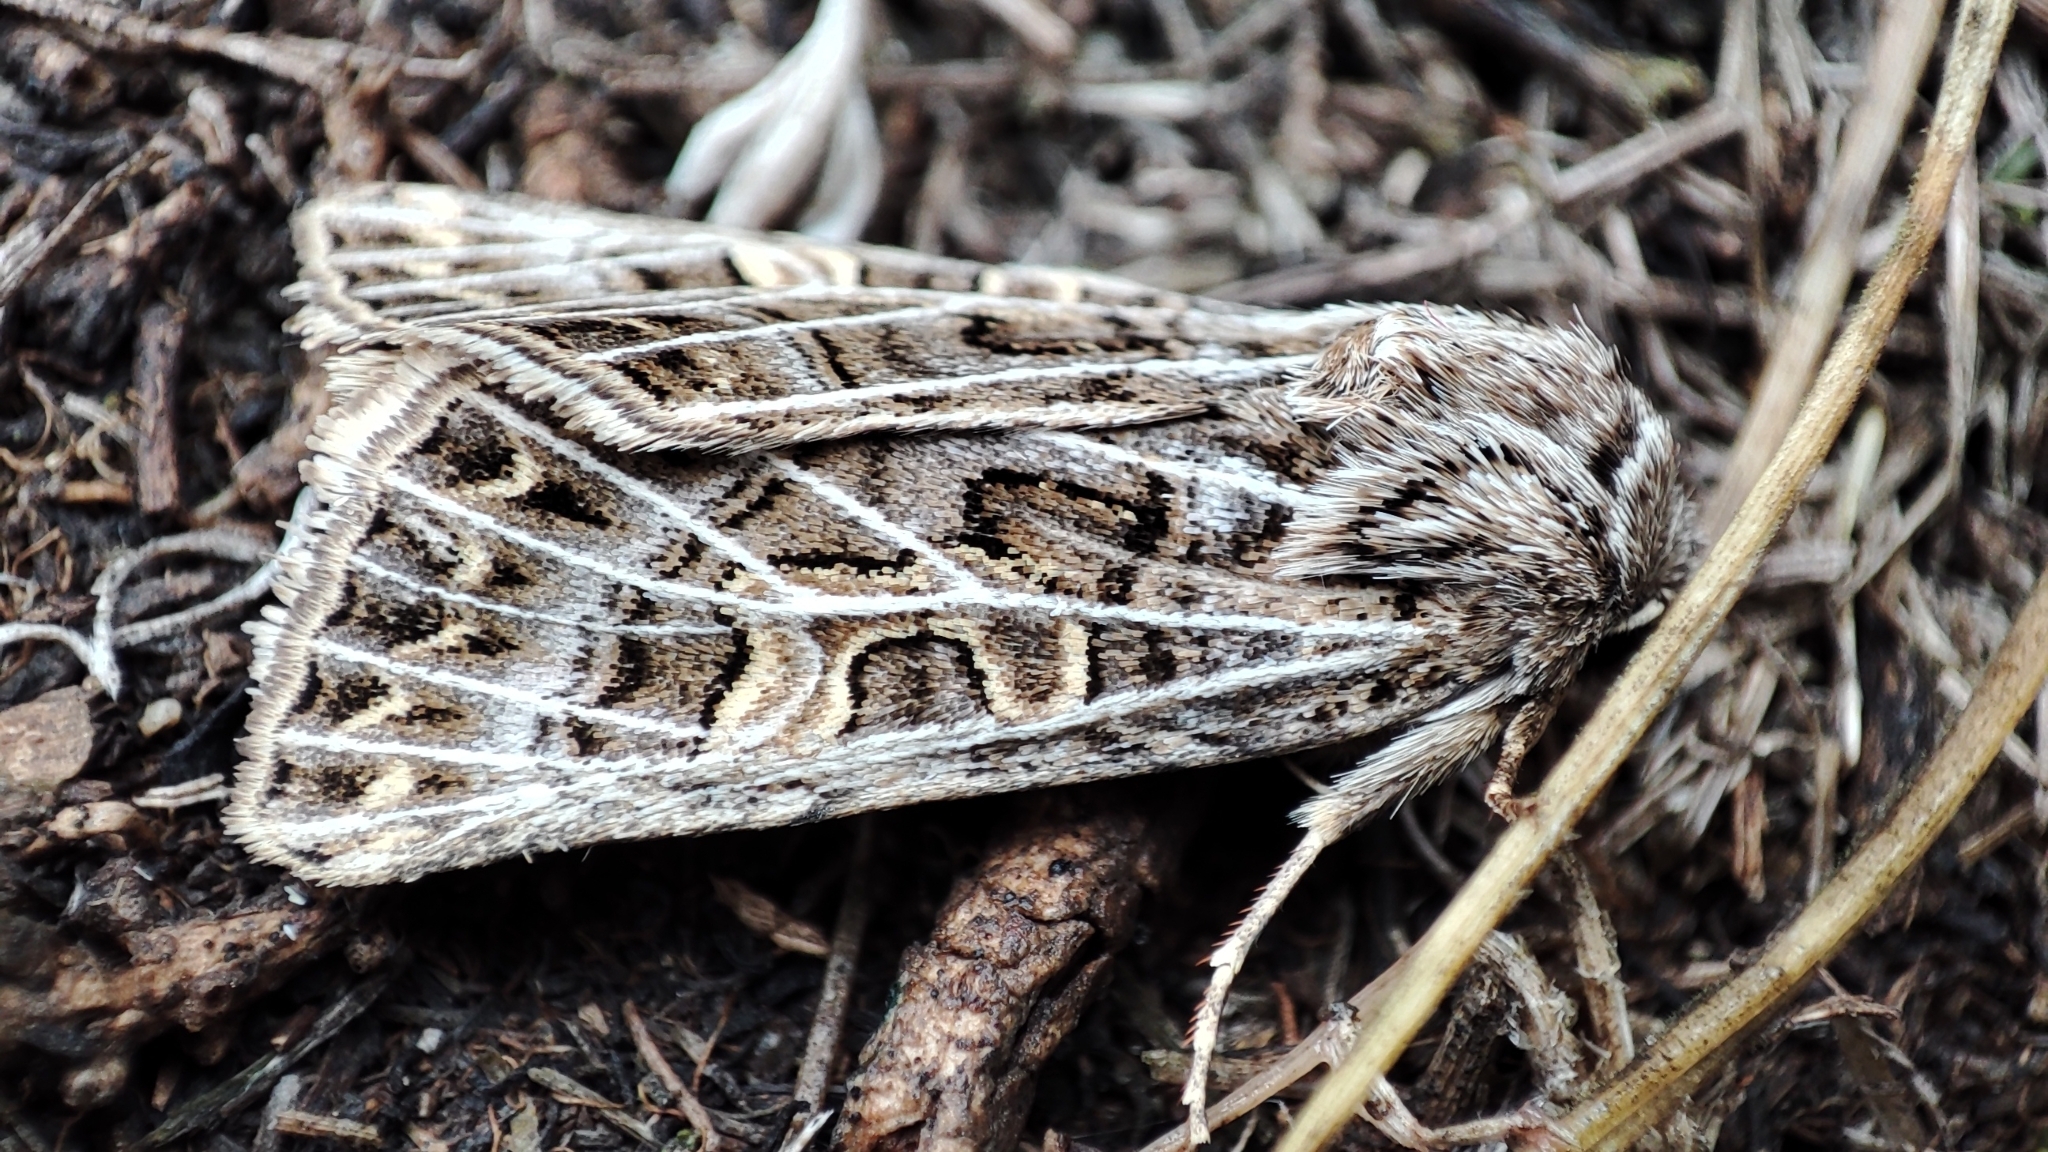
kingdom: Animalia
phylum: Arthropoda
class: Insecta
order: Lepidoptera
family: Noctuidae
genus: Tholera
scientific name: Tholera hilaris
